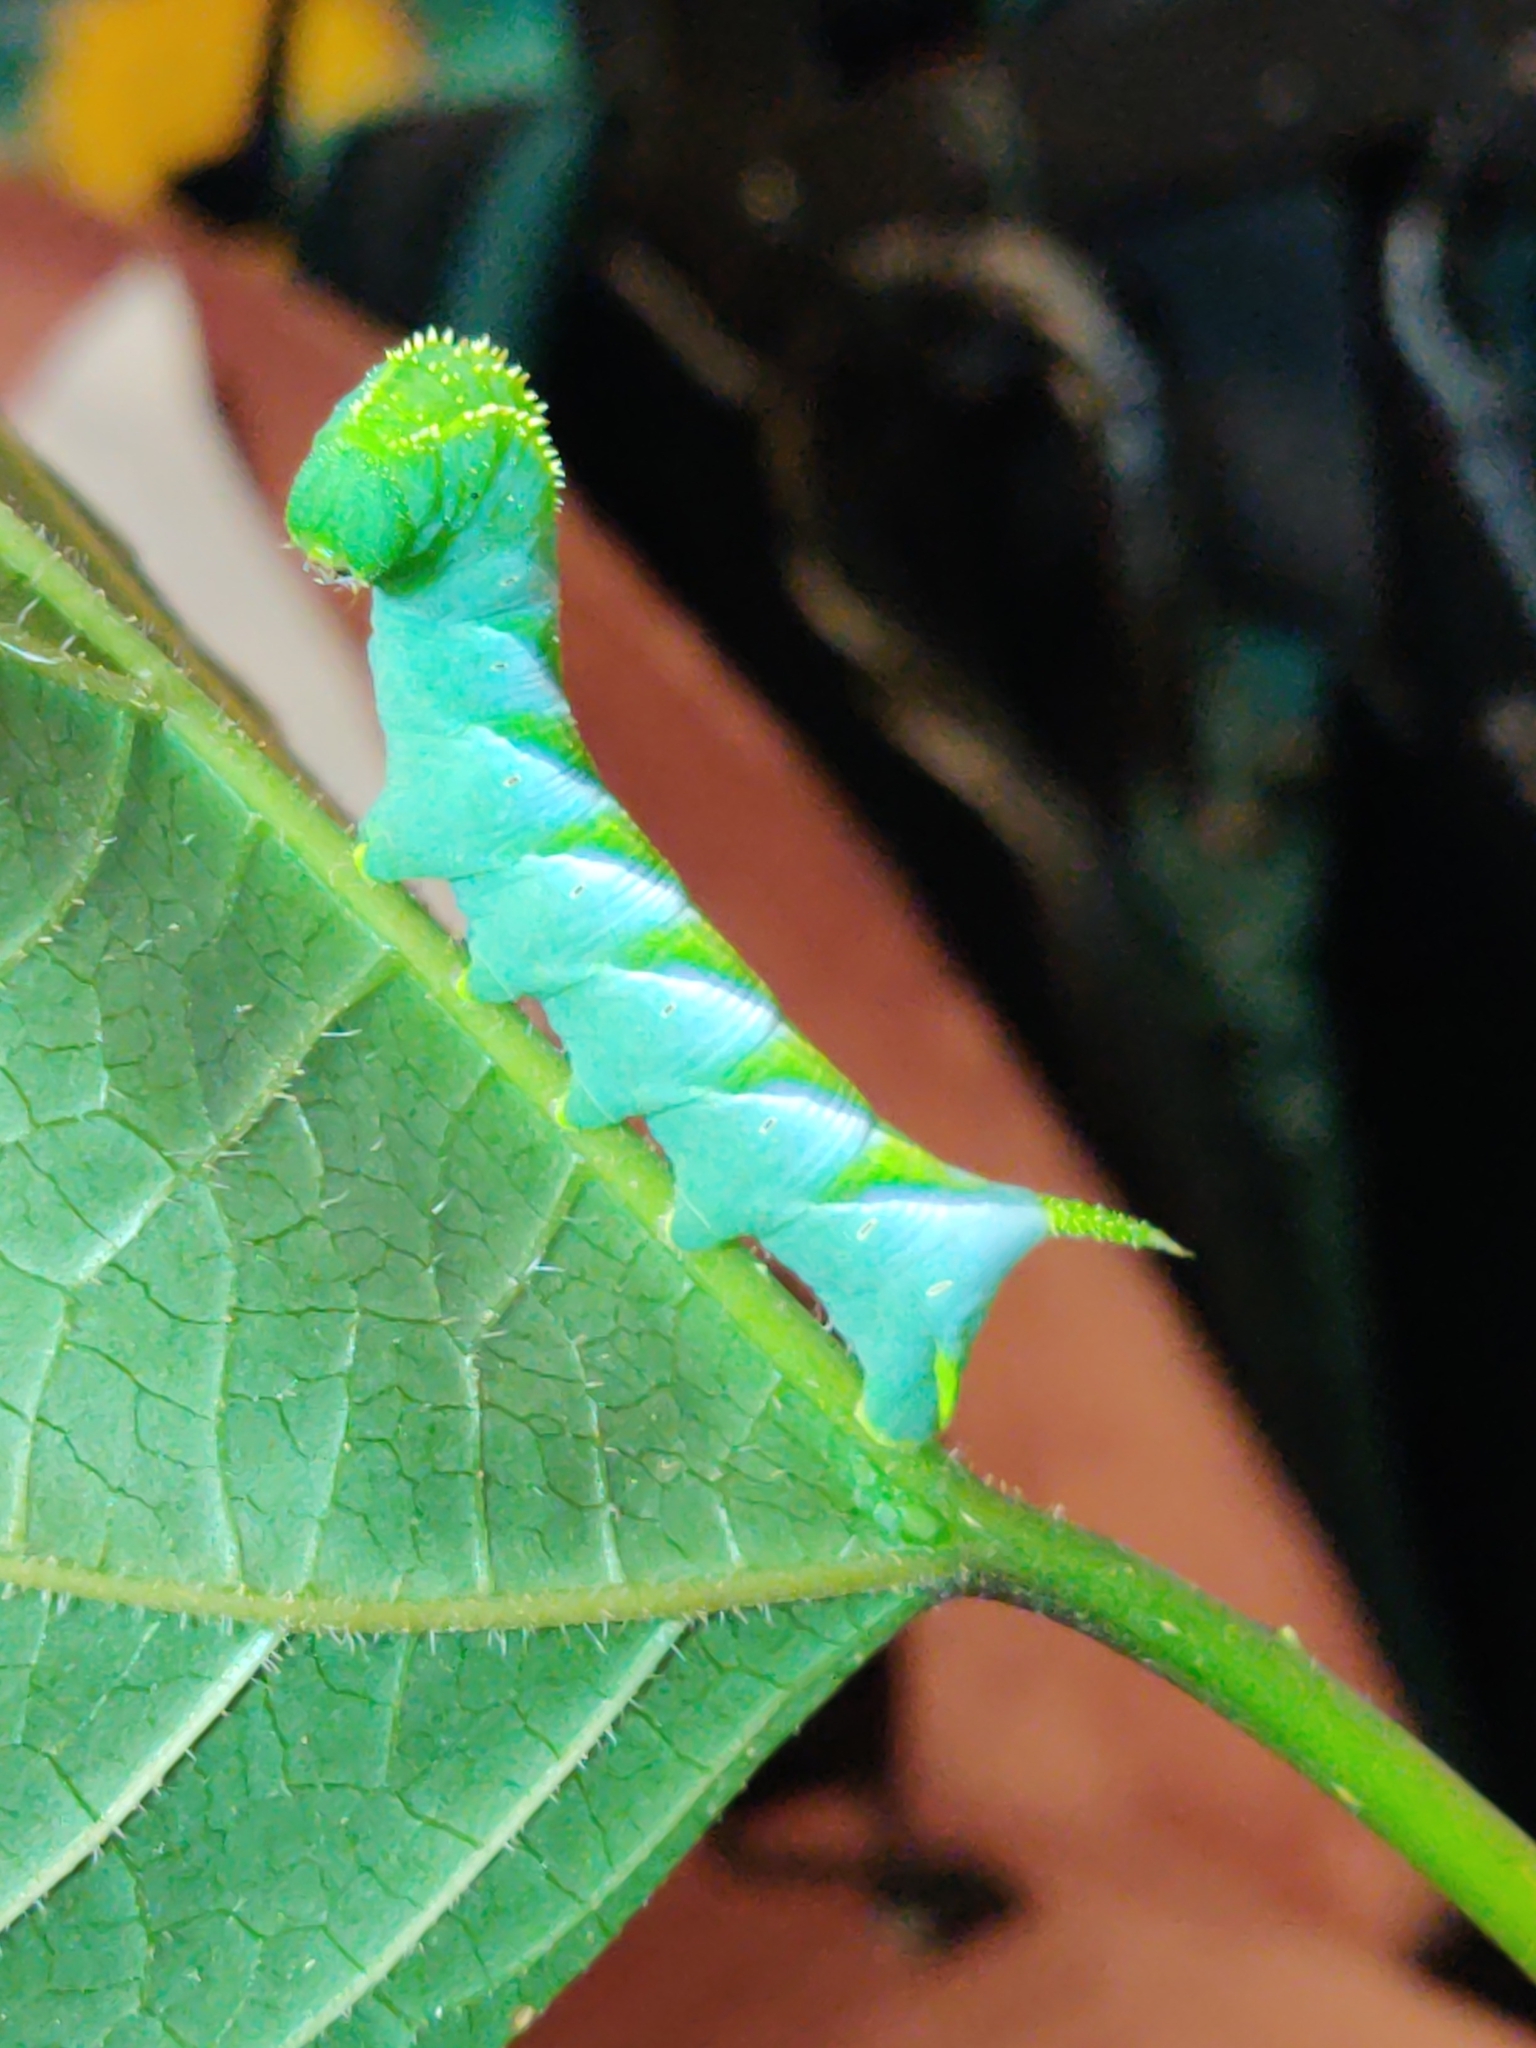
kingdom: Animalia
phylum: Arthropoda
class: Insecta
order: Lepidoptera
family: Sphingidae
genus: Manduca
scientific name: Manduca rustica
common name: Rustic sphinx
